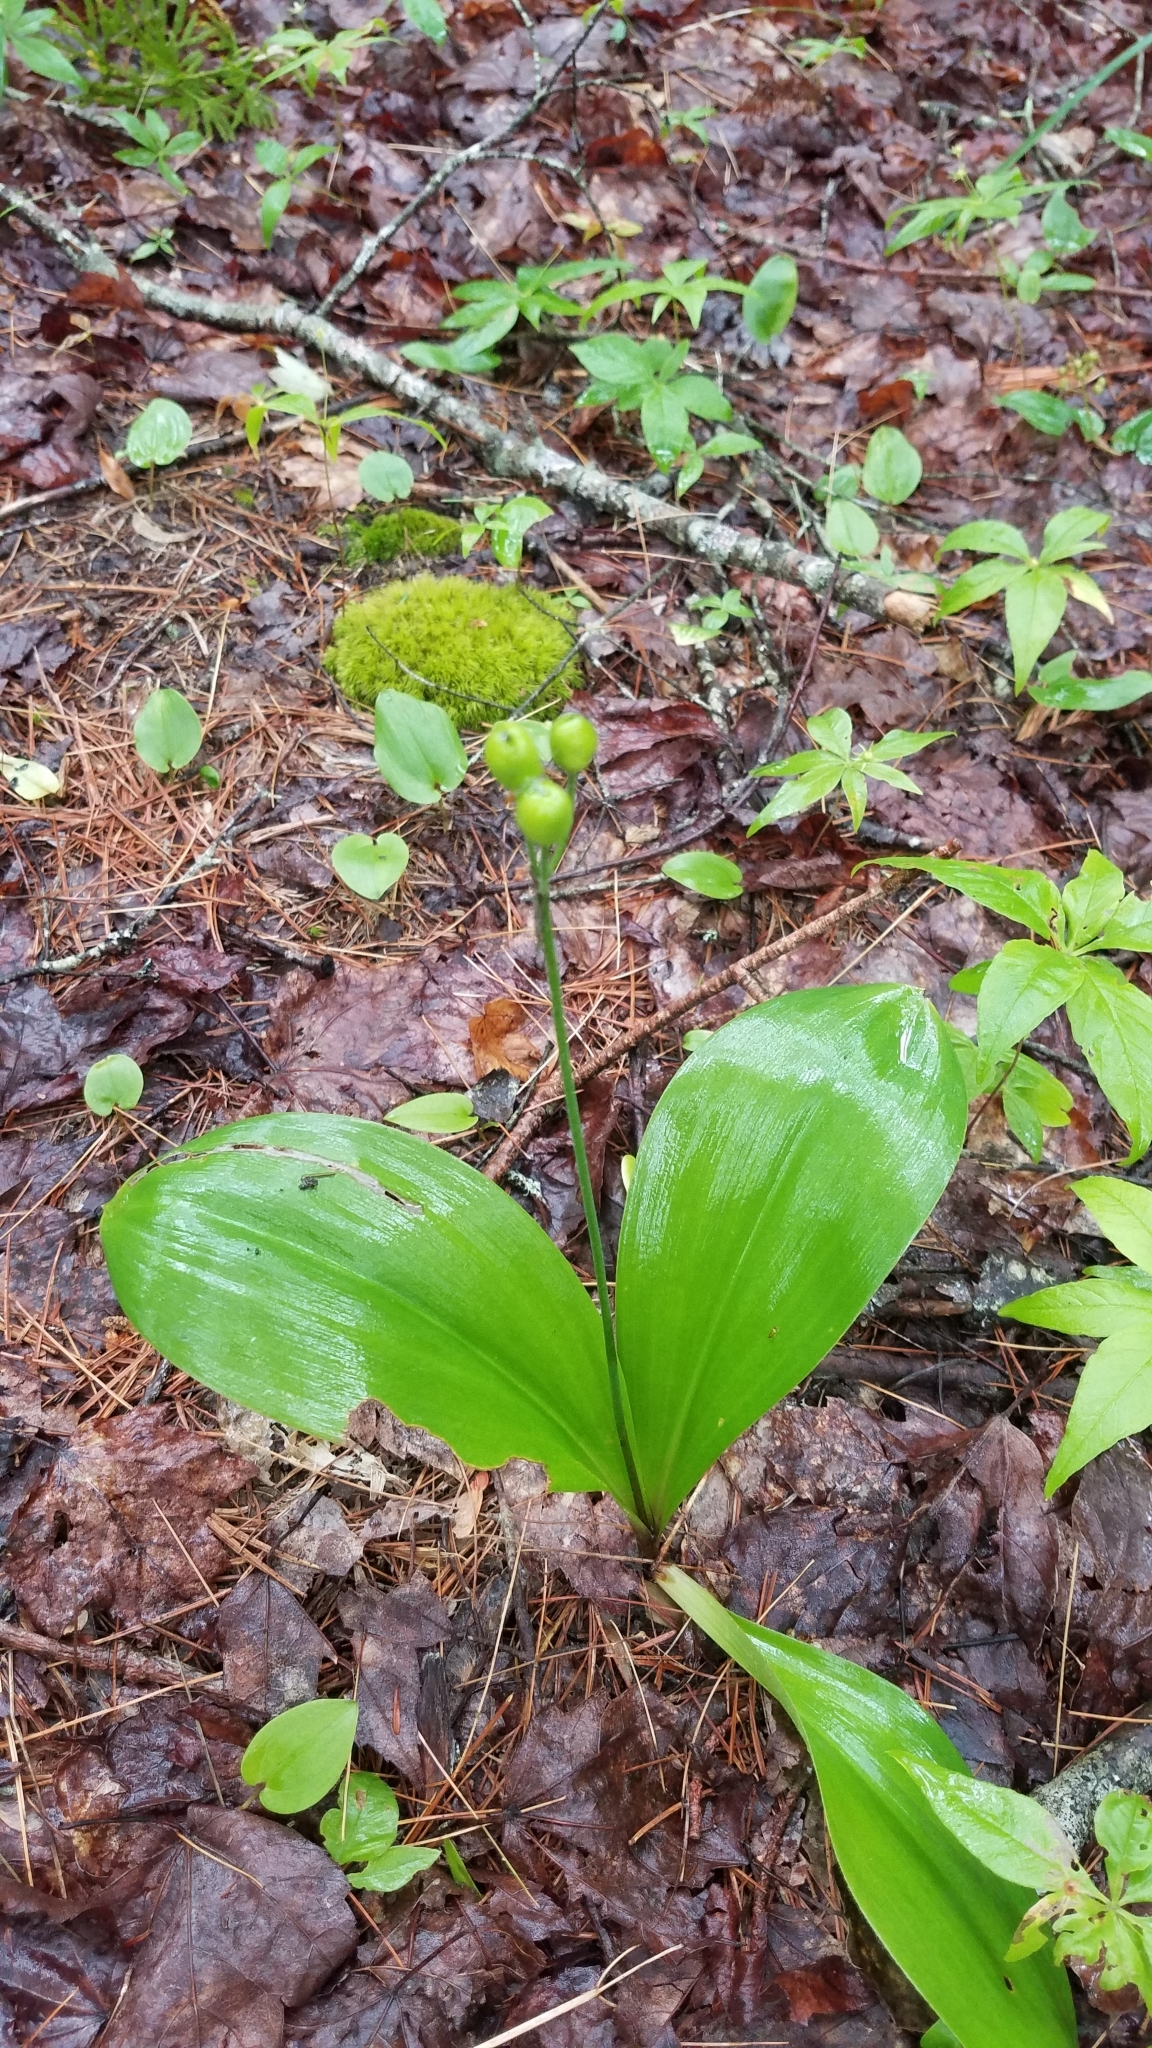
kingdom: Plantae
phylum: Tracheophyta
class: Liliopsida
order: Liliales
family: Liliaceae
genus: Clintonia
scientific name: Clintonia borealis
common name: Yellow clintonia
